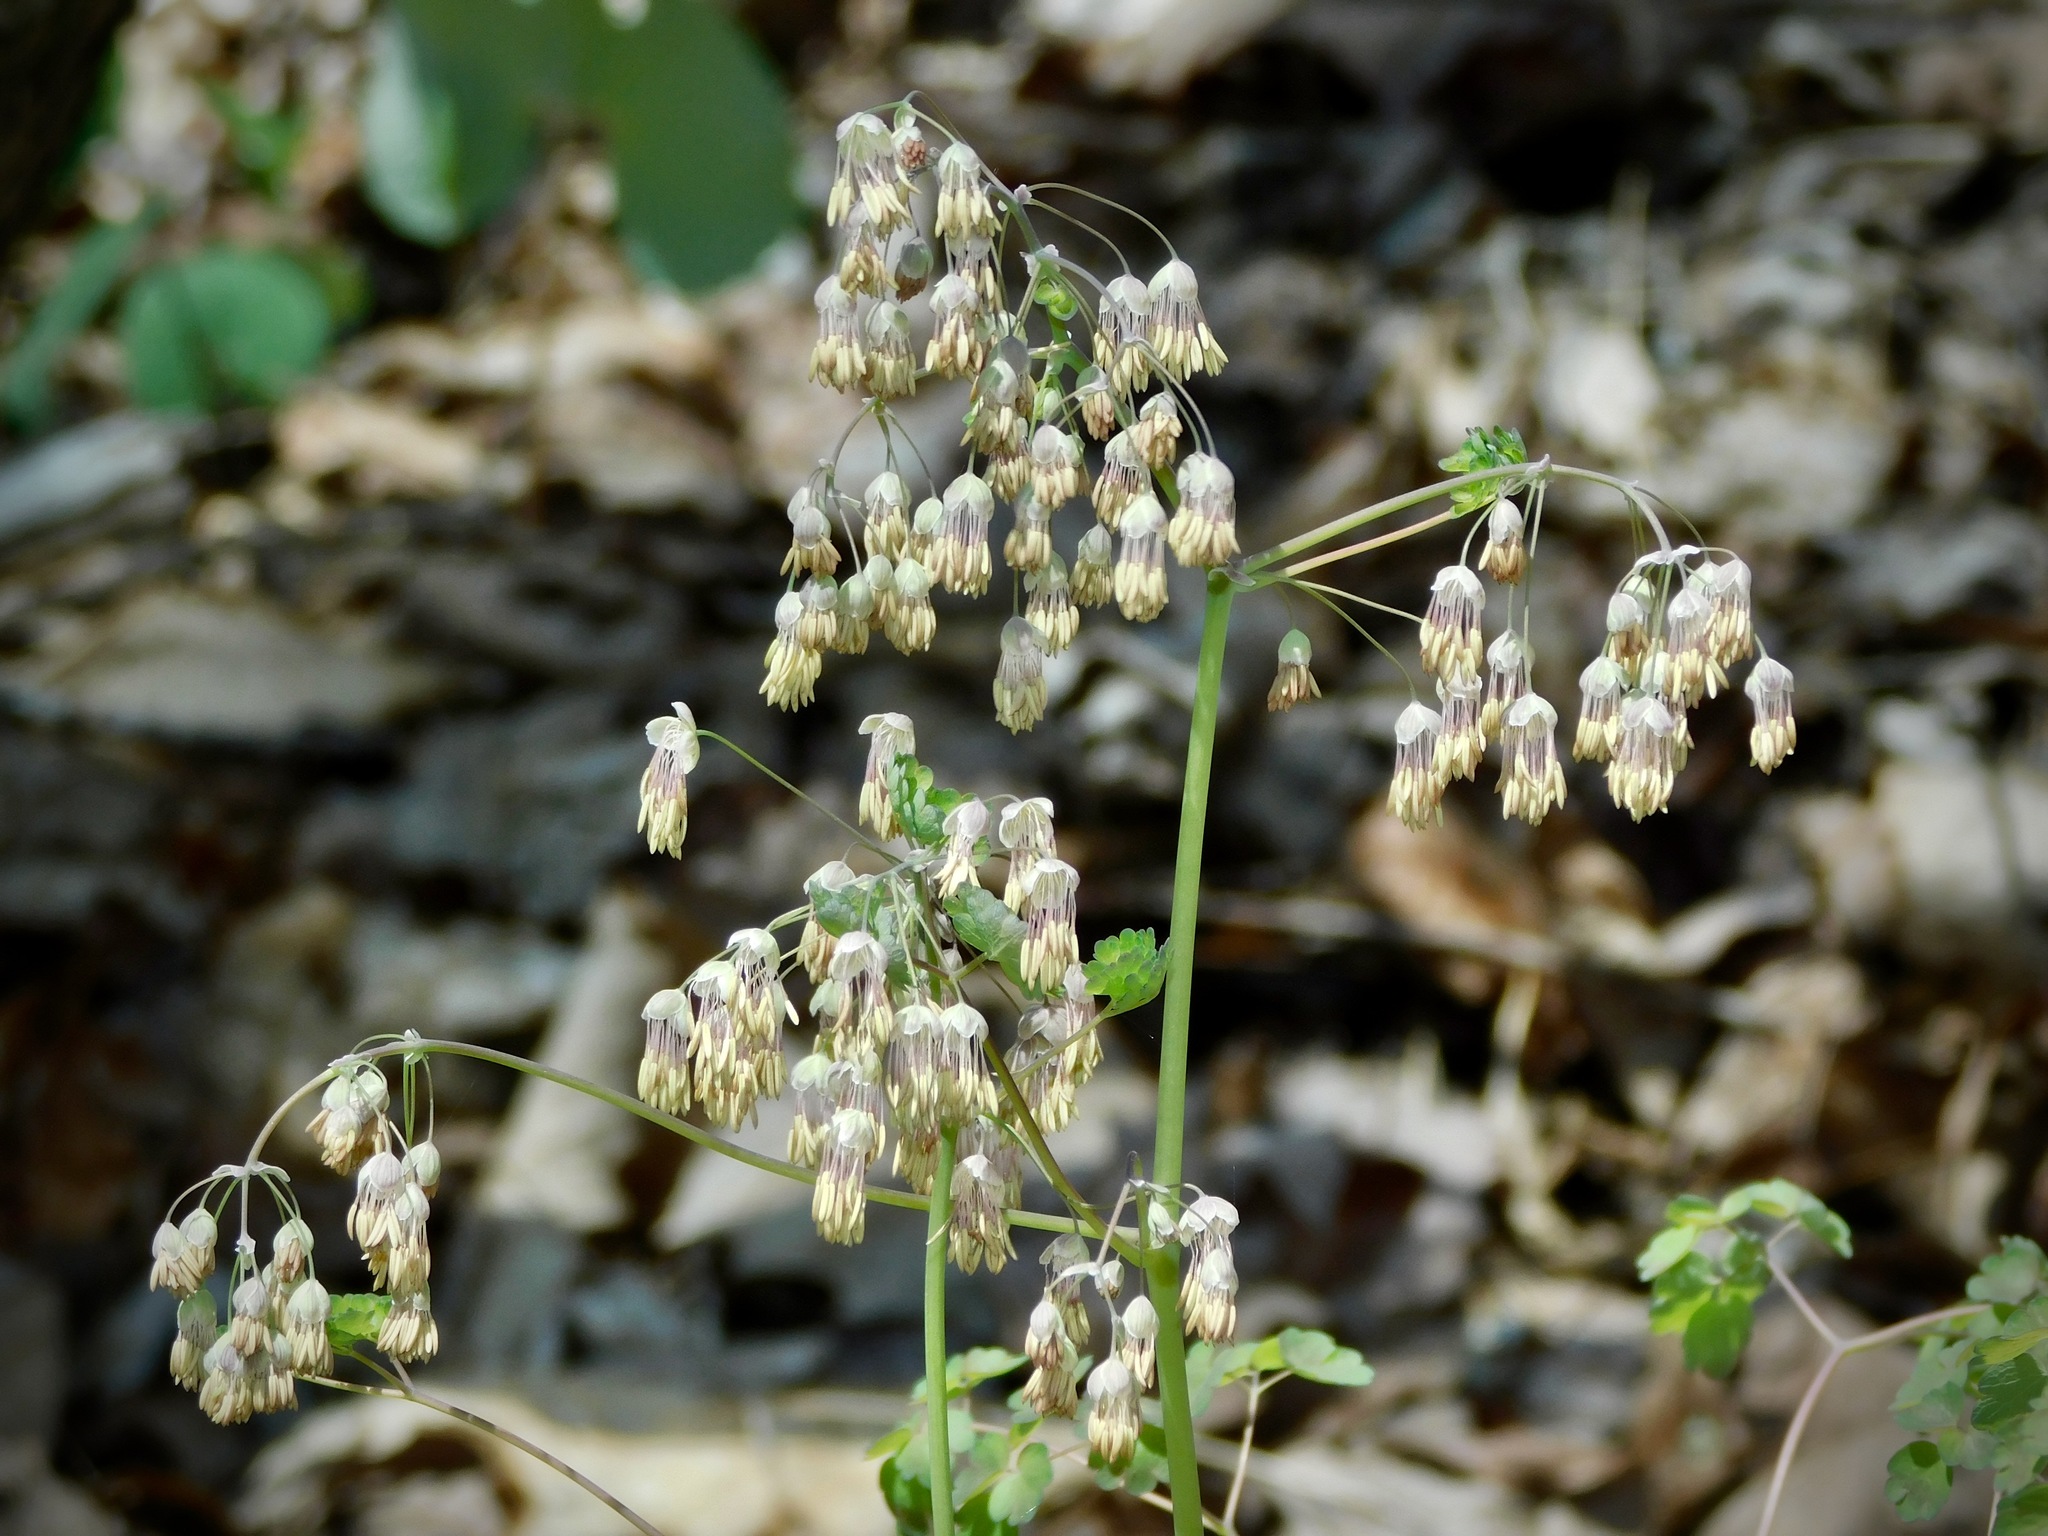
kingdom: Plantae
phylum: Tracheophyta
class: Magnoliopsida
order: Ranunculales
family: Ranunculaceae
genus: Thalictrum
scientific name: Thalictrum dioicum
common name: Early meadow-rue
